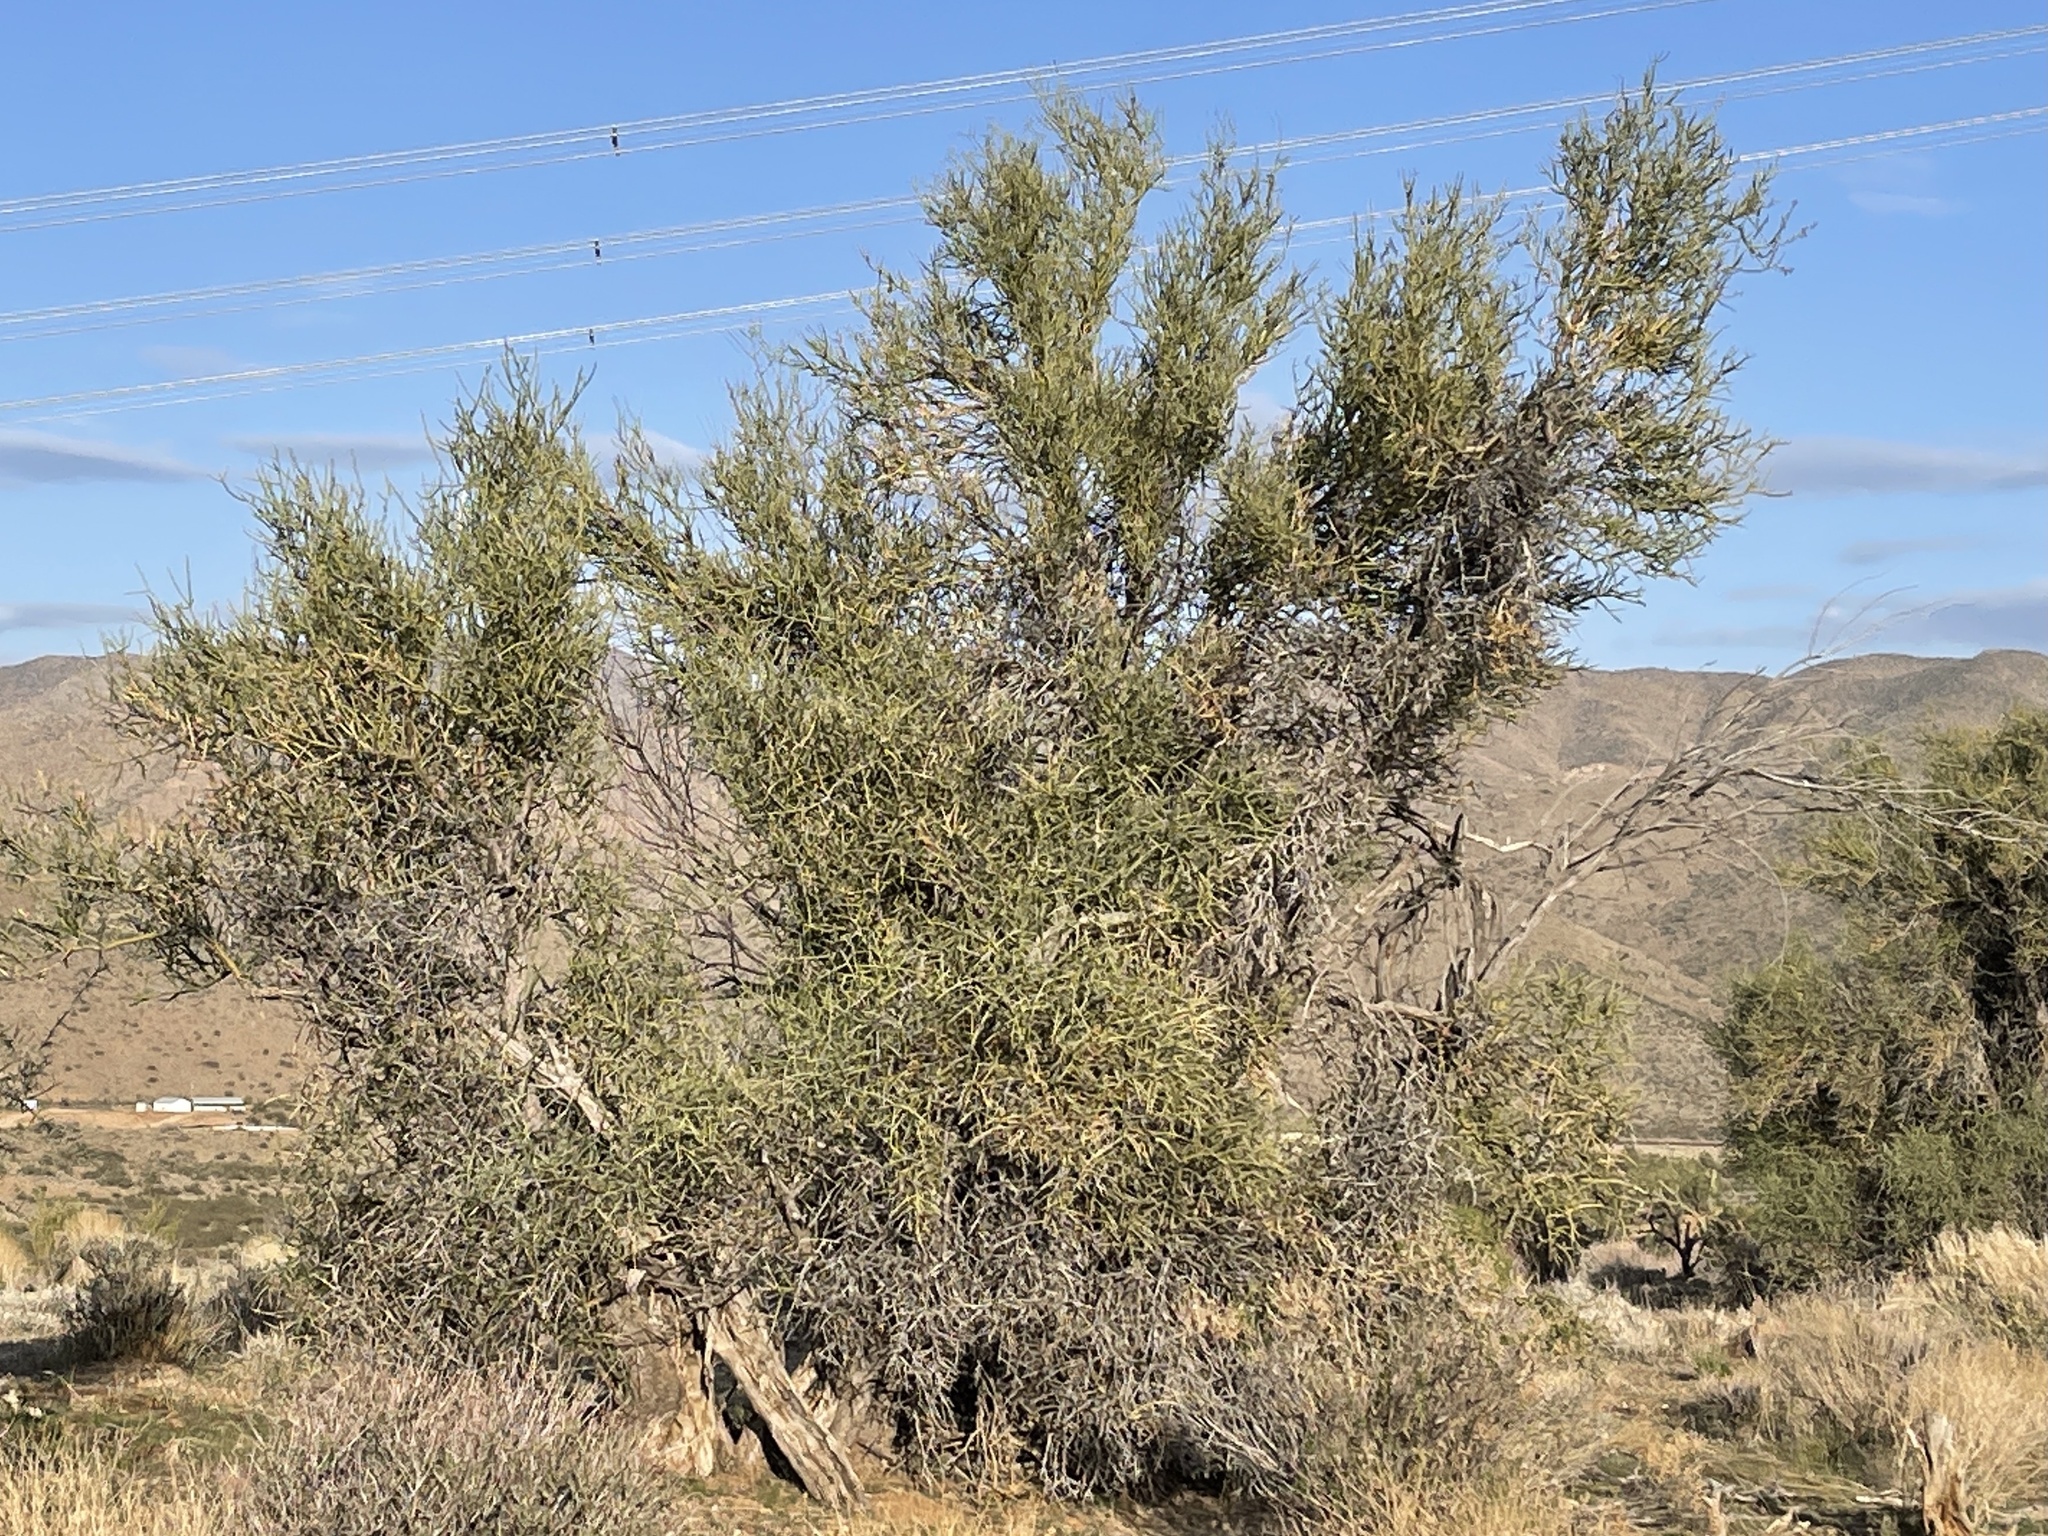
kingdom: Plantae
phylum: Tracheophyta
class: Magnoliopsida
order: Celastrales
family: Celastraceae
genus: Canotia
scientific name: Canotia holacantha
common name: Crucifixion thorns
